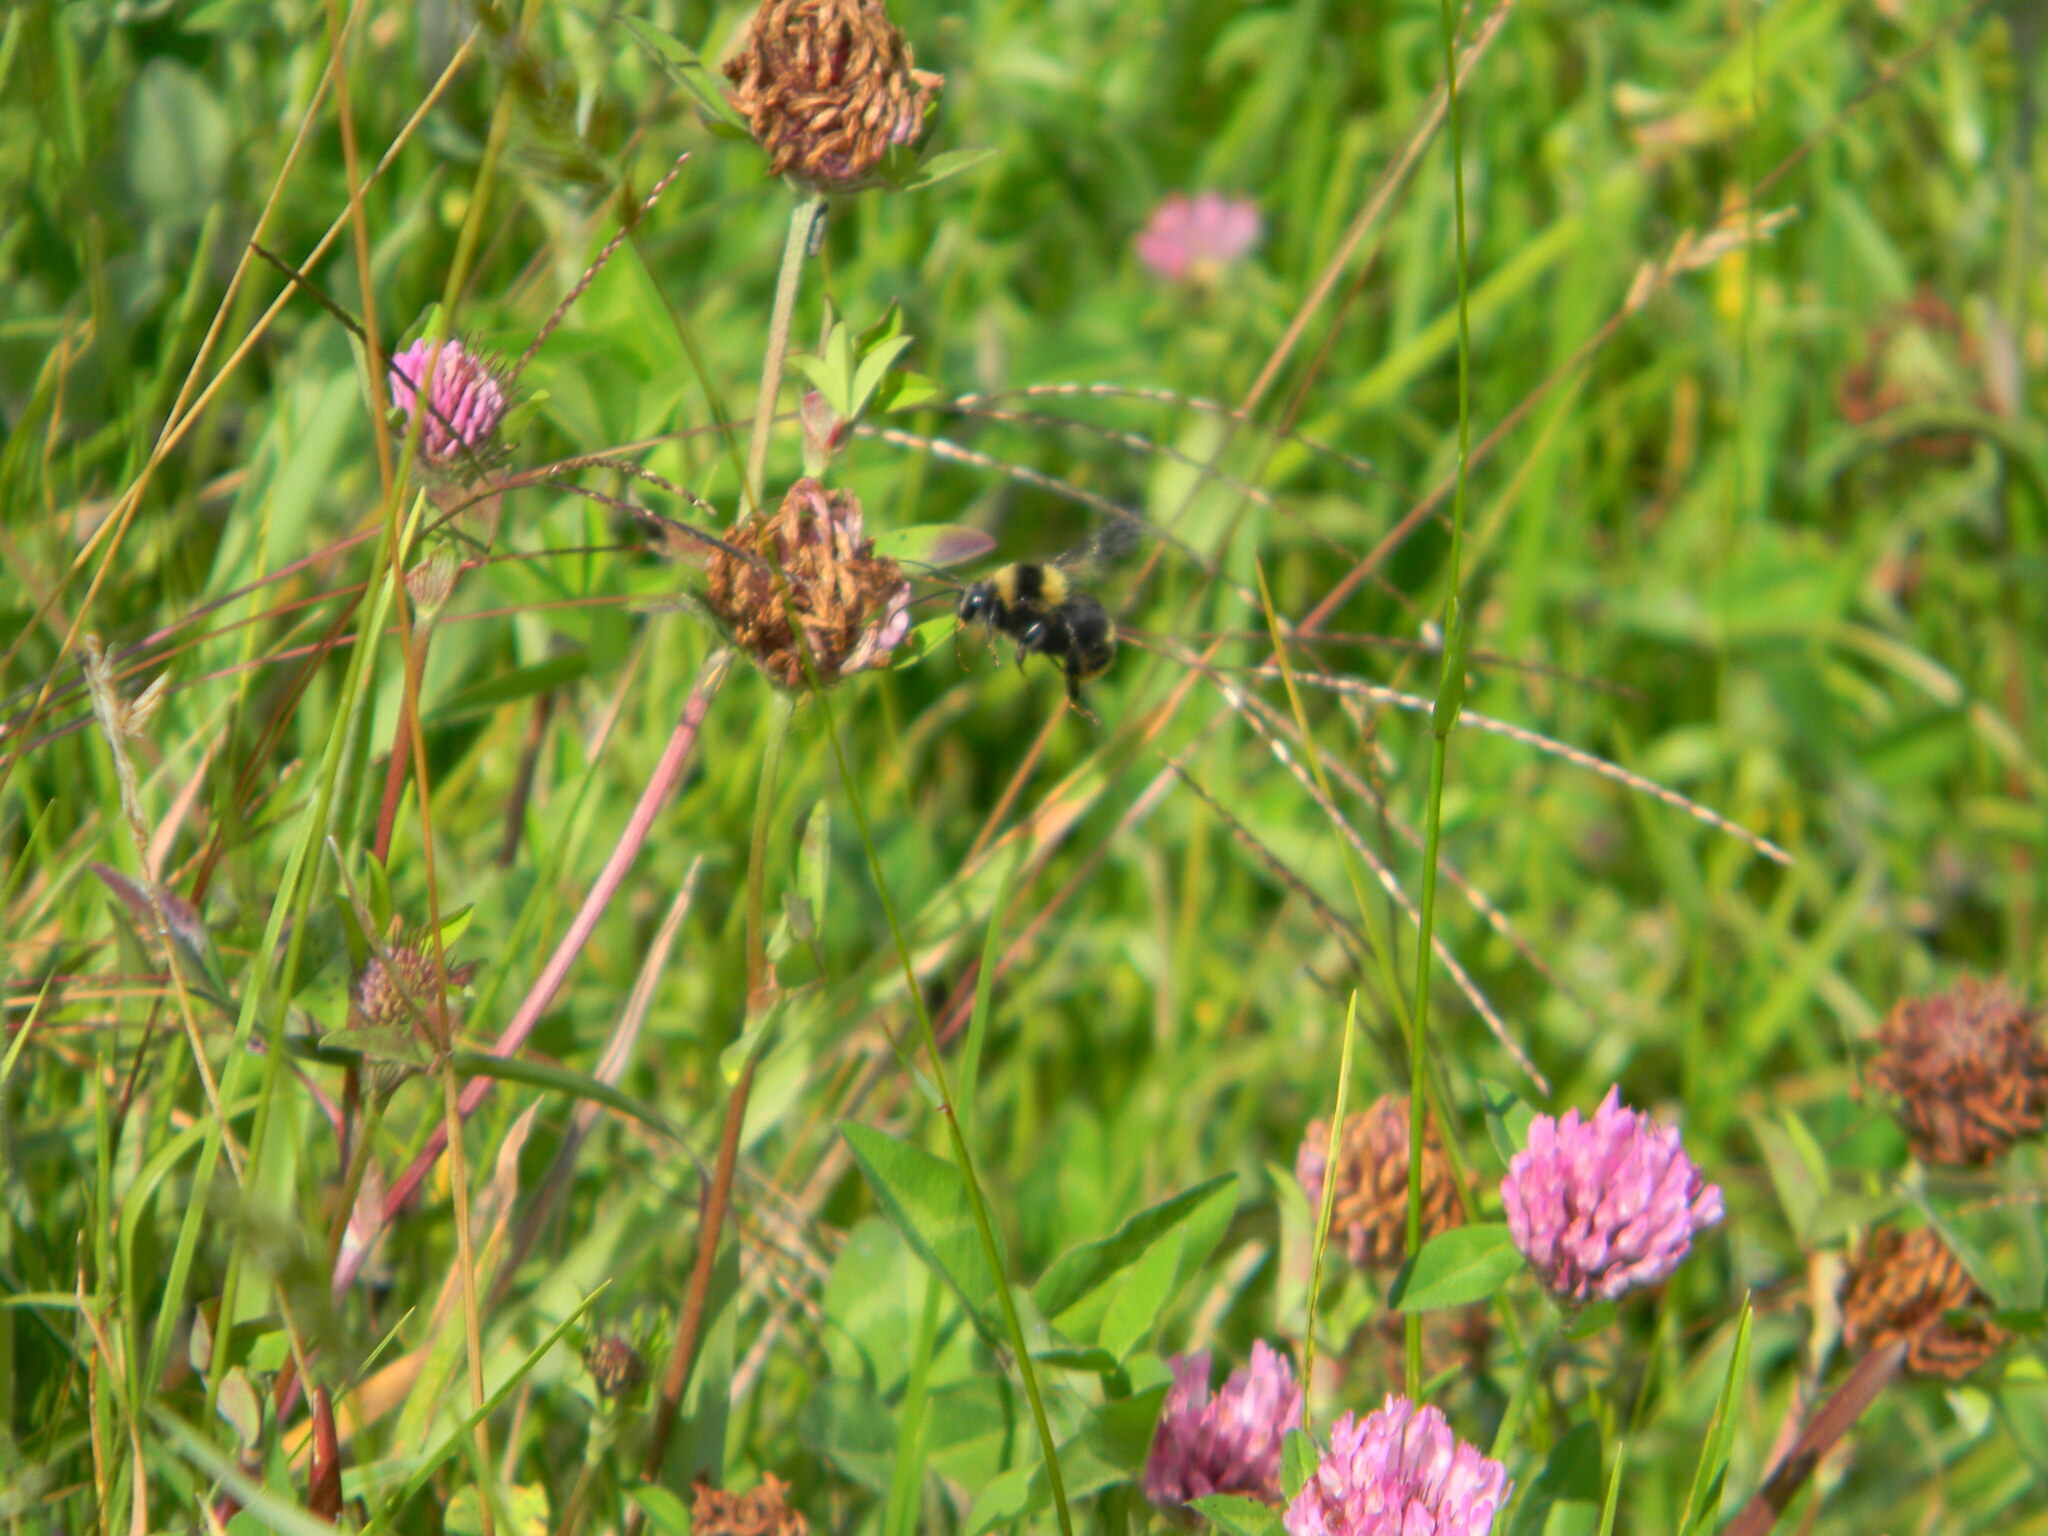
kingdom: Animalia
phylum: Arthropoda
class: Insecta
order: Hymenoptera
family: Apidae
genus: Bombus
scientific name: Bombus pauloensis
